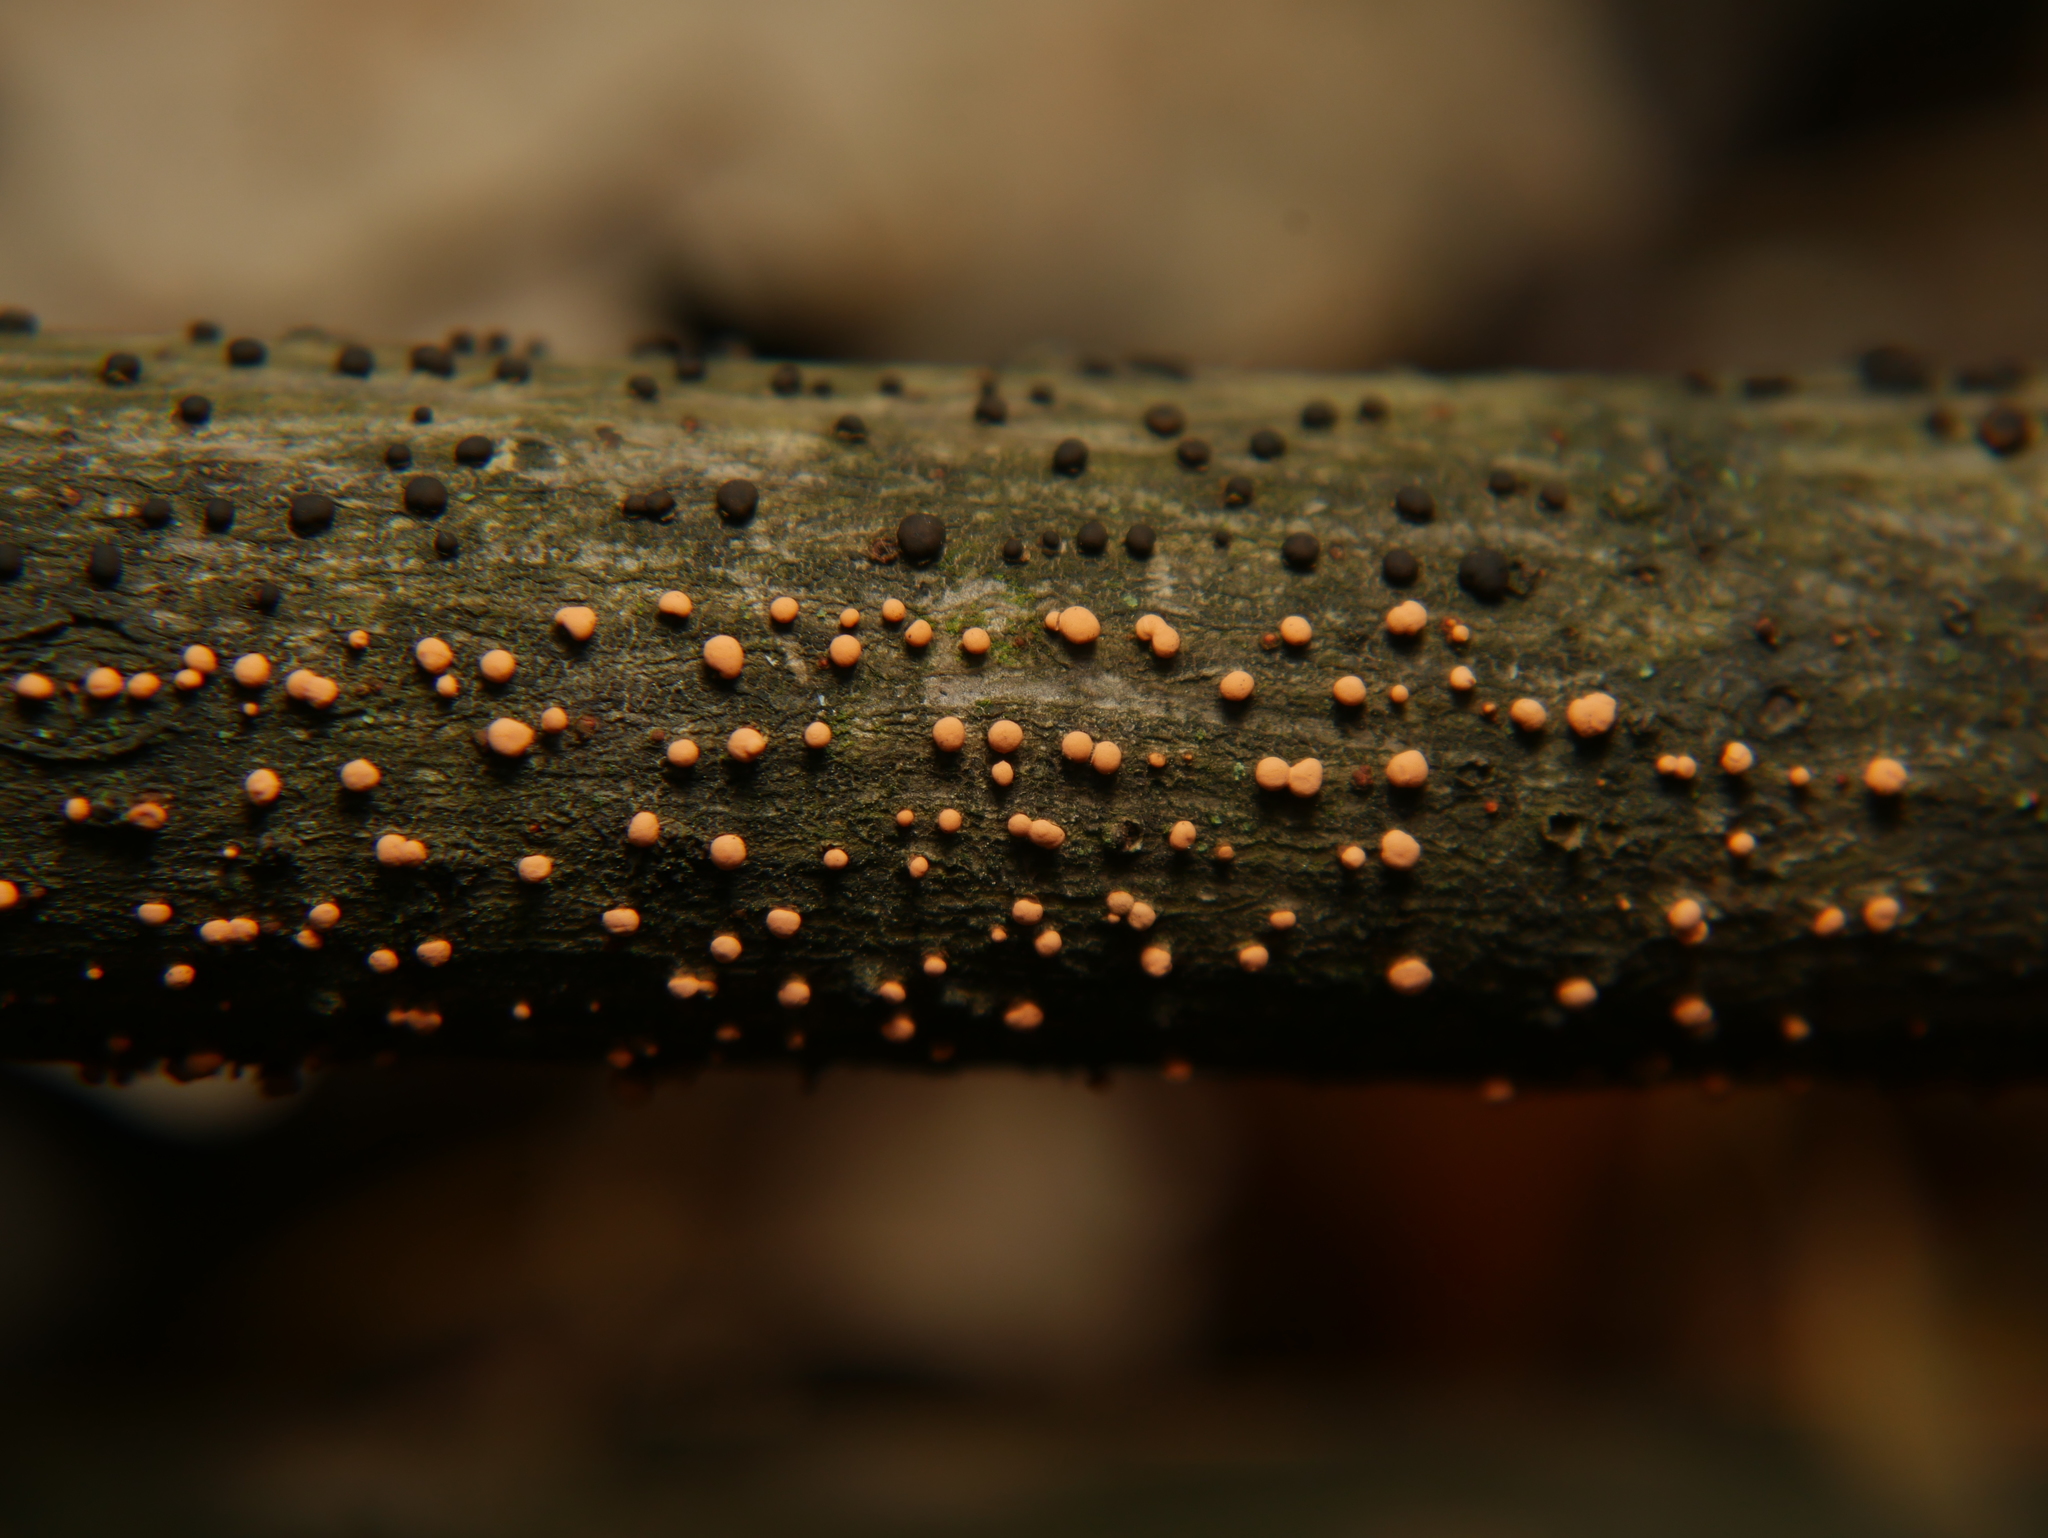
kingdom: Fungi
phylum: Ascomycota
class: Sordariomycetes
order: Hypocreales
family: Nectriaceae
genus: Nectria
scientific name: Nectria cinnabarina
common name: Coral spot
